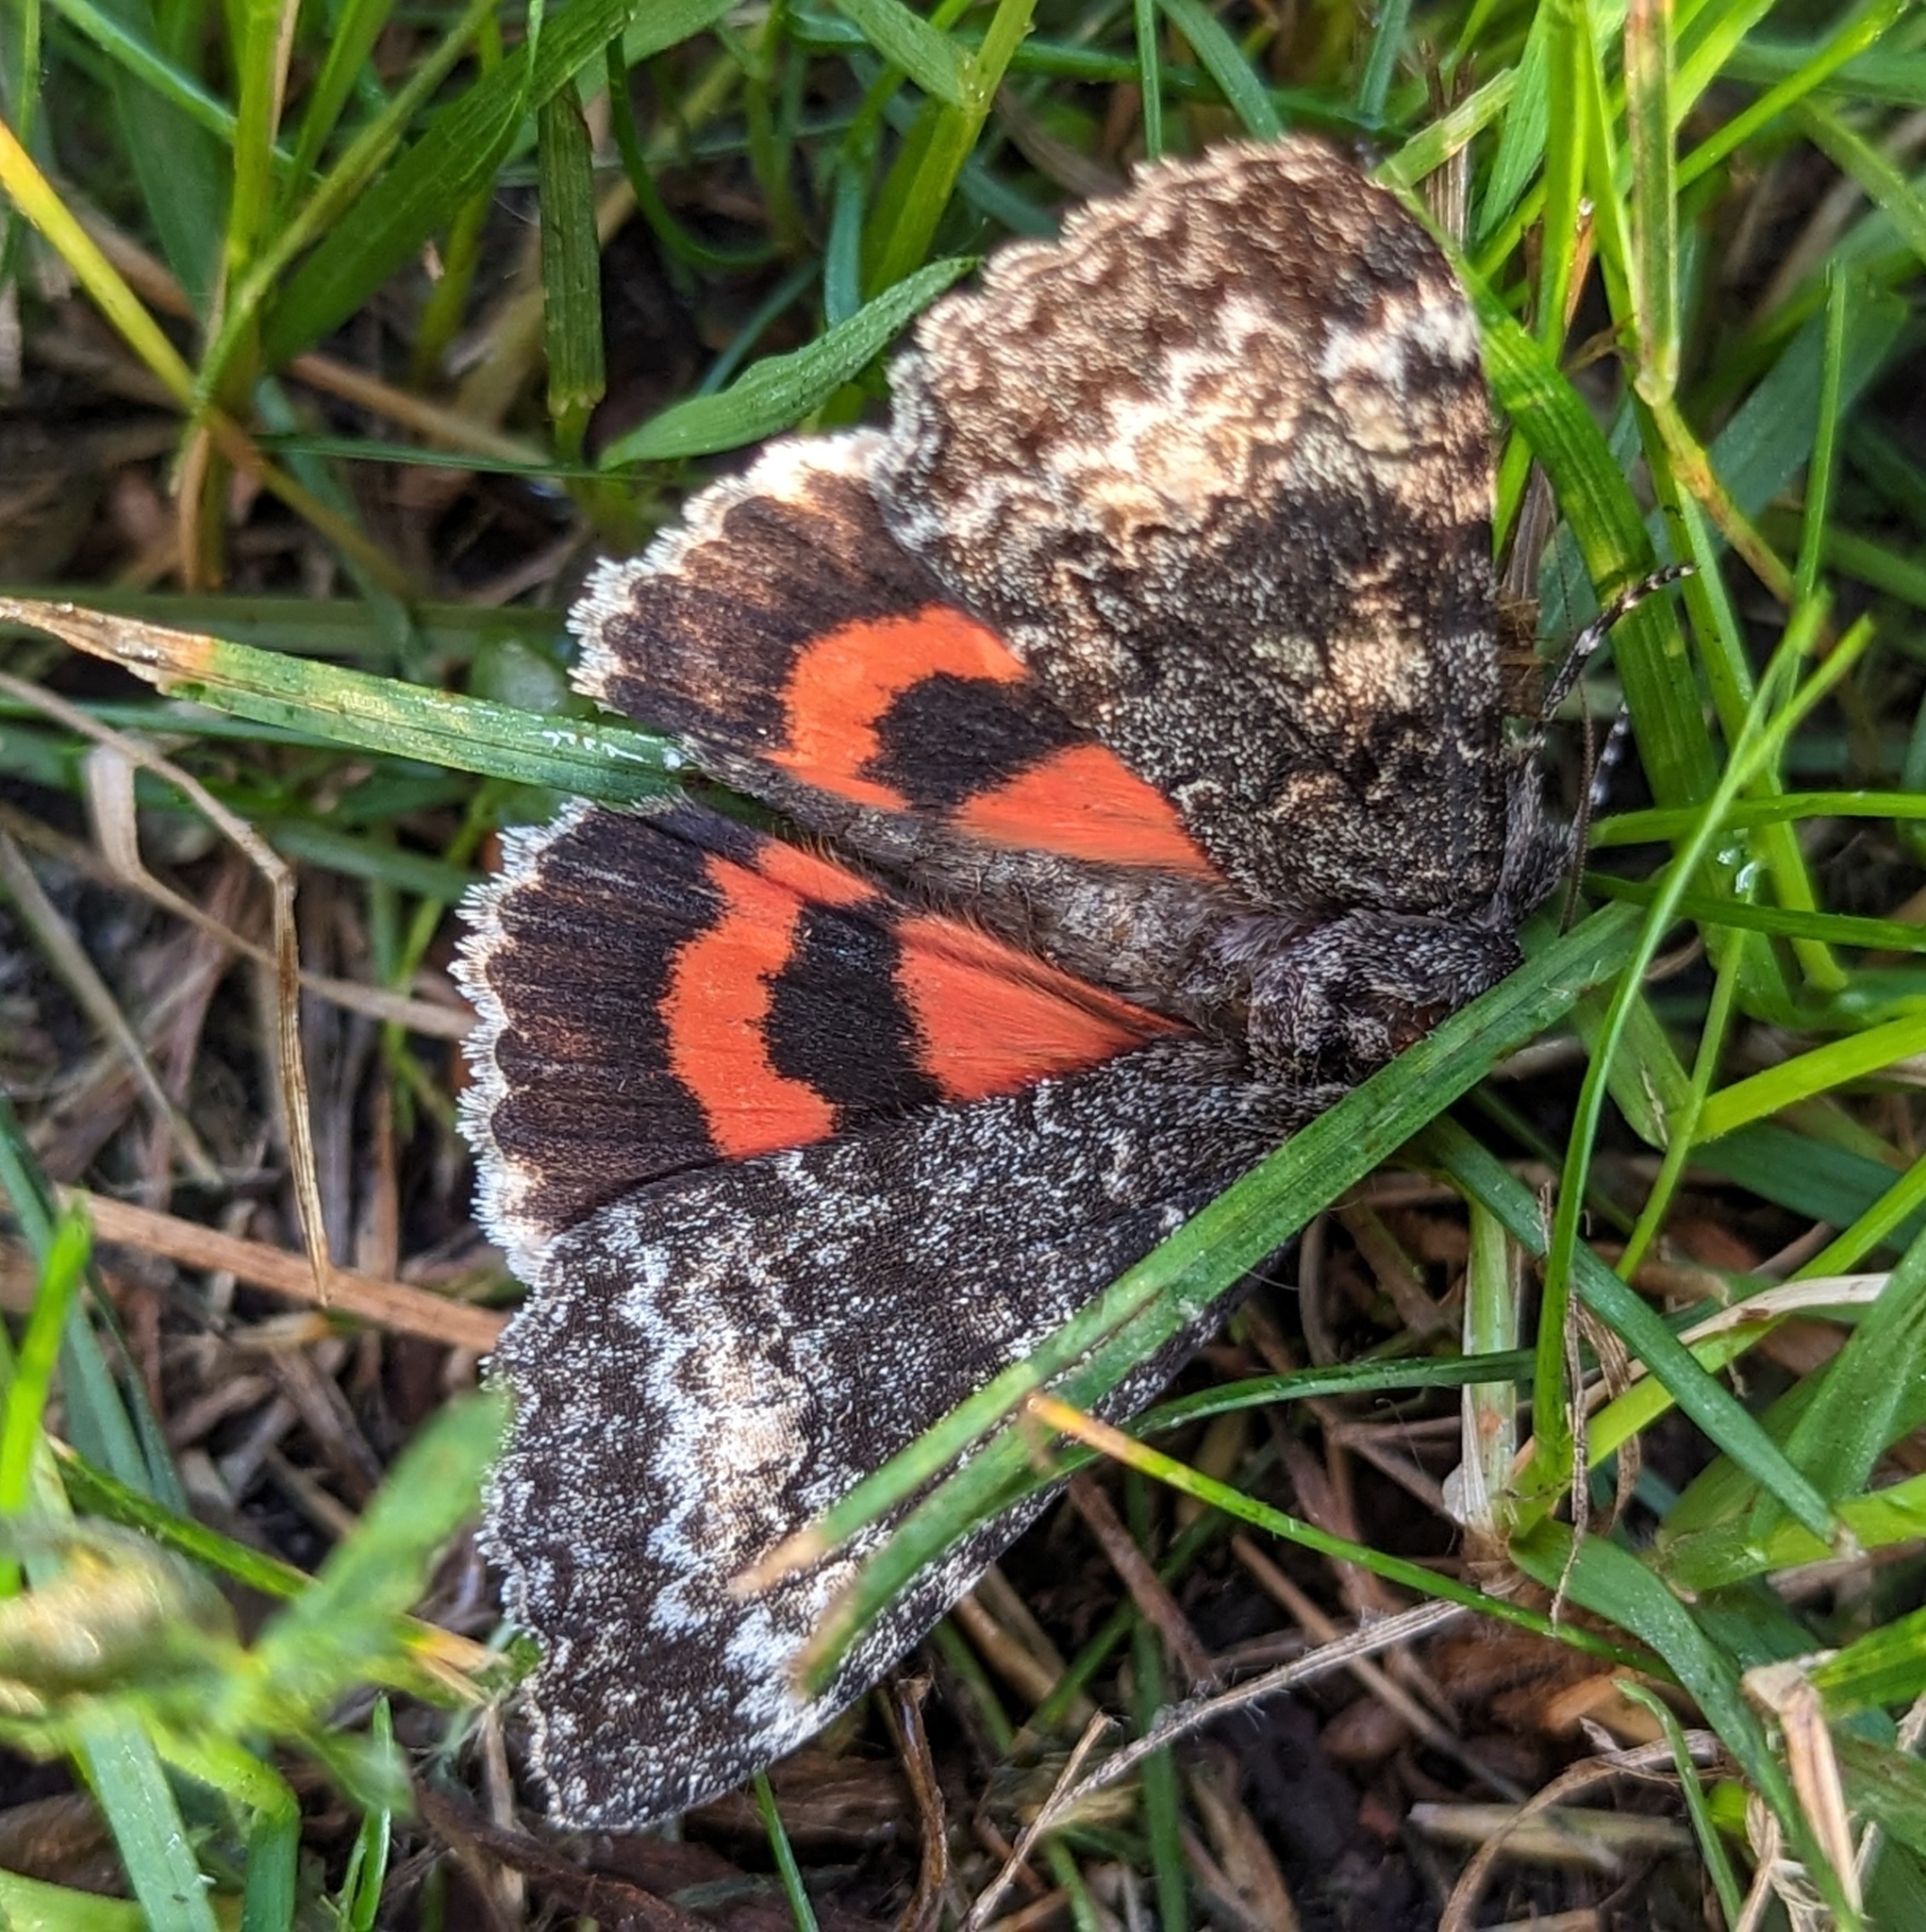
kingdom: Animalia
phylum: Arthropoda
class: Insecta
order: Lepidoptera
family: Erebidae
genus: Catocala
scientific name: Catocala briseis
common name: Briseis underwing
